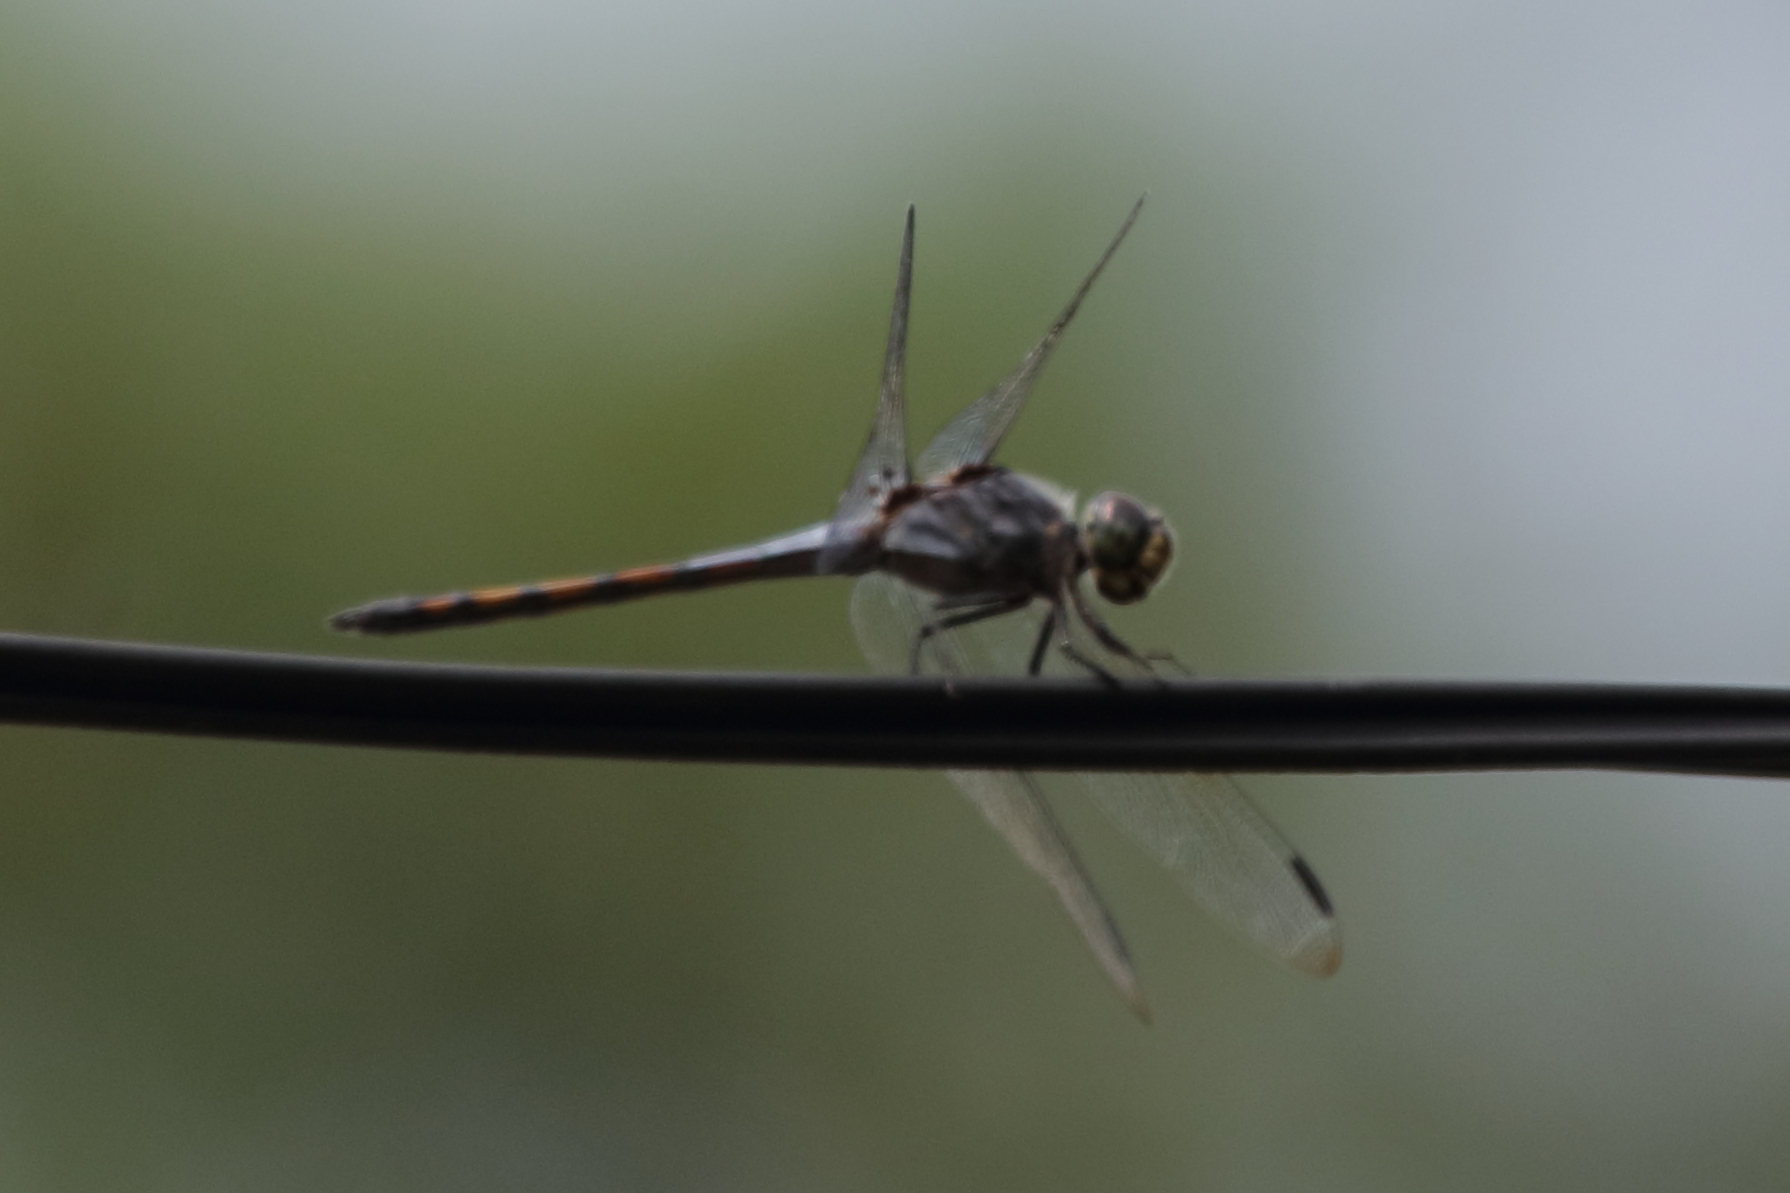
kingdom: Animalia
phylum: Arthropoda
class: Insecta
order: Odonata
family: Libellulidae
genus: Potamarcha
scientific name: Potamarcha congener
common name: Blue chaser
